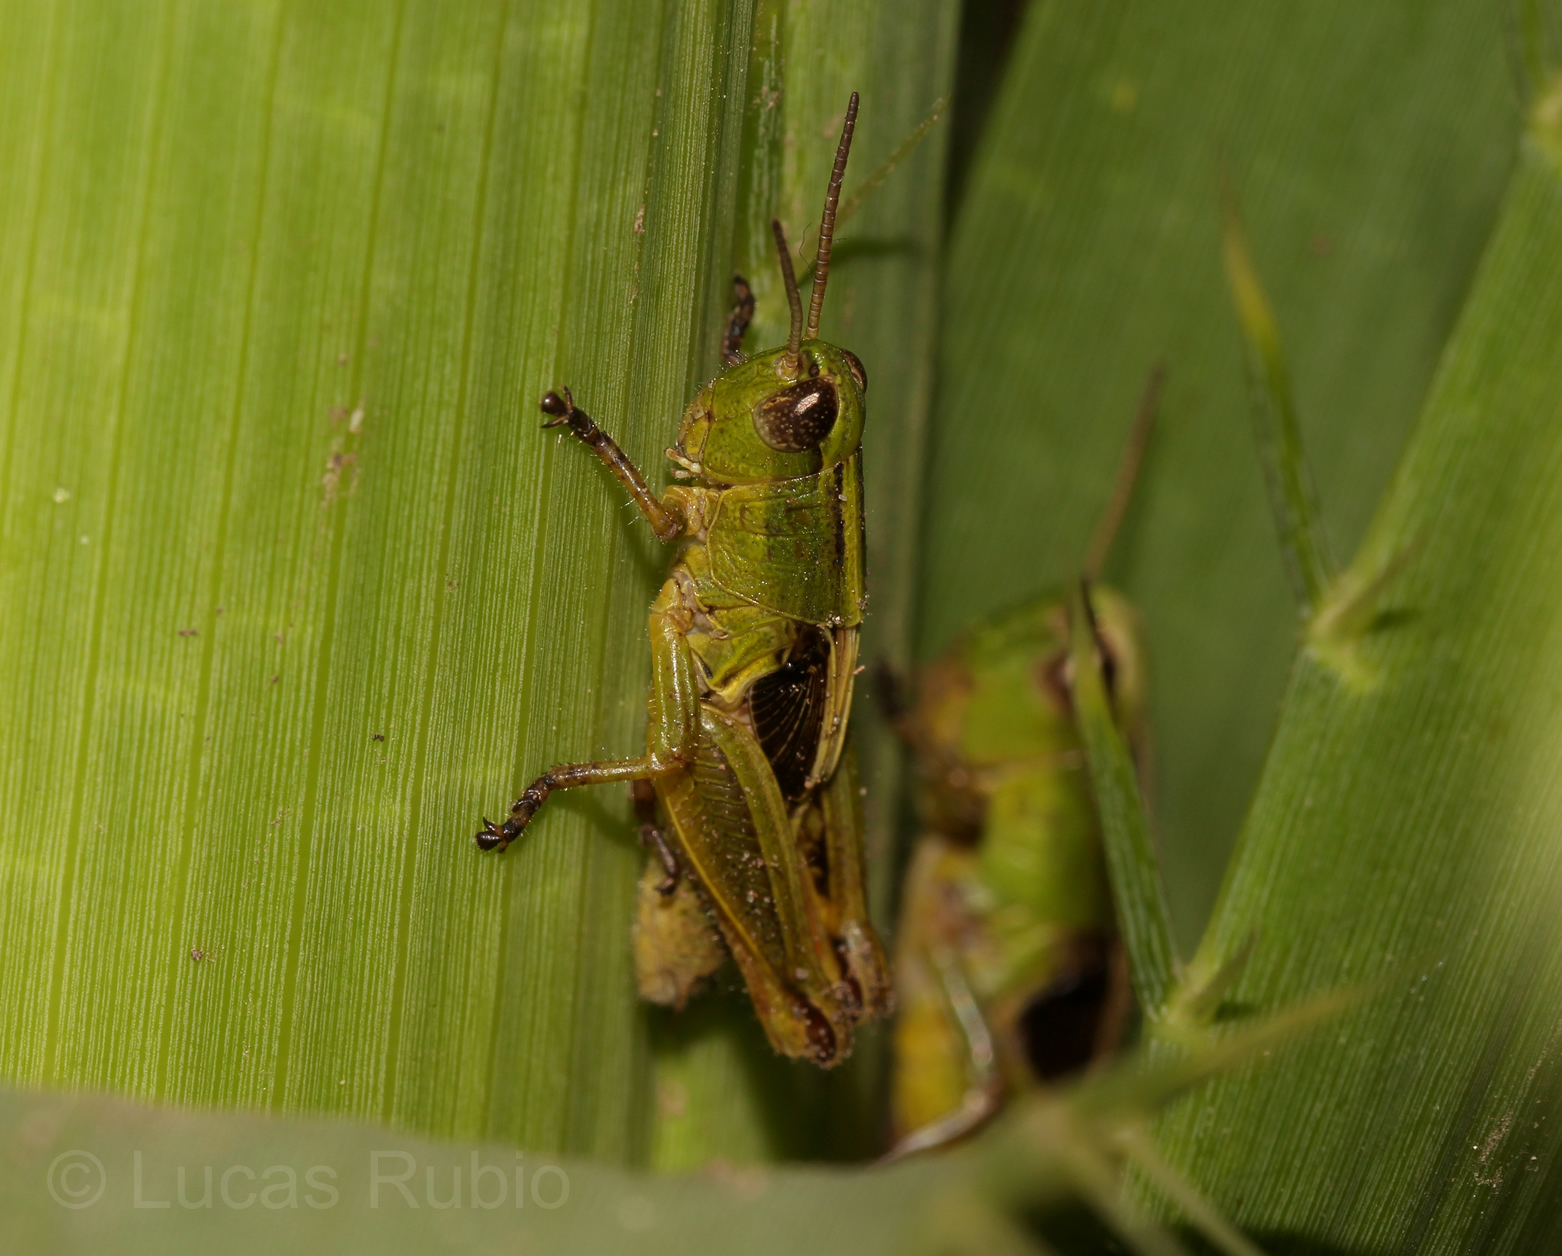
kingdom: Animalia
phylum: Arthropoda
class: Insecta
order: Orthoptera
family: Acrididae
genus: Scotussa
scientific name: Scotussa cliens
